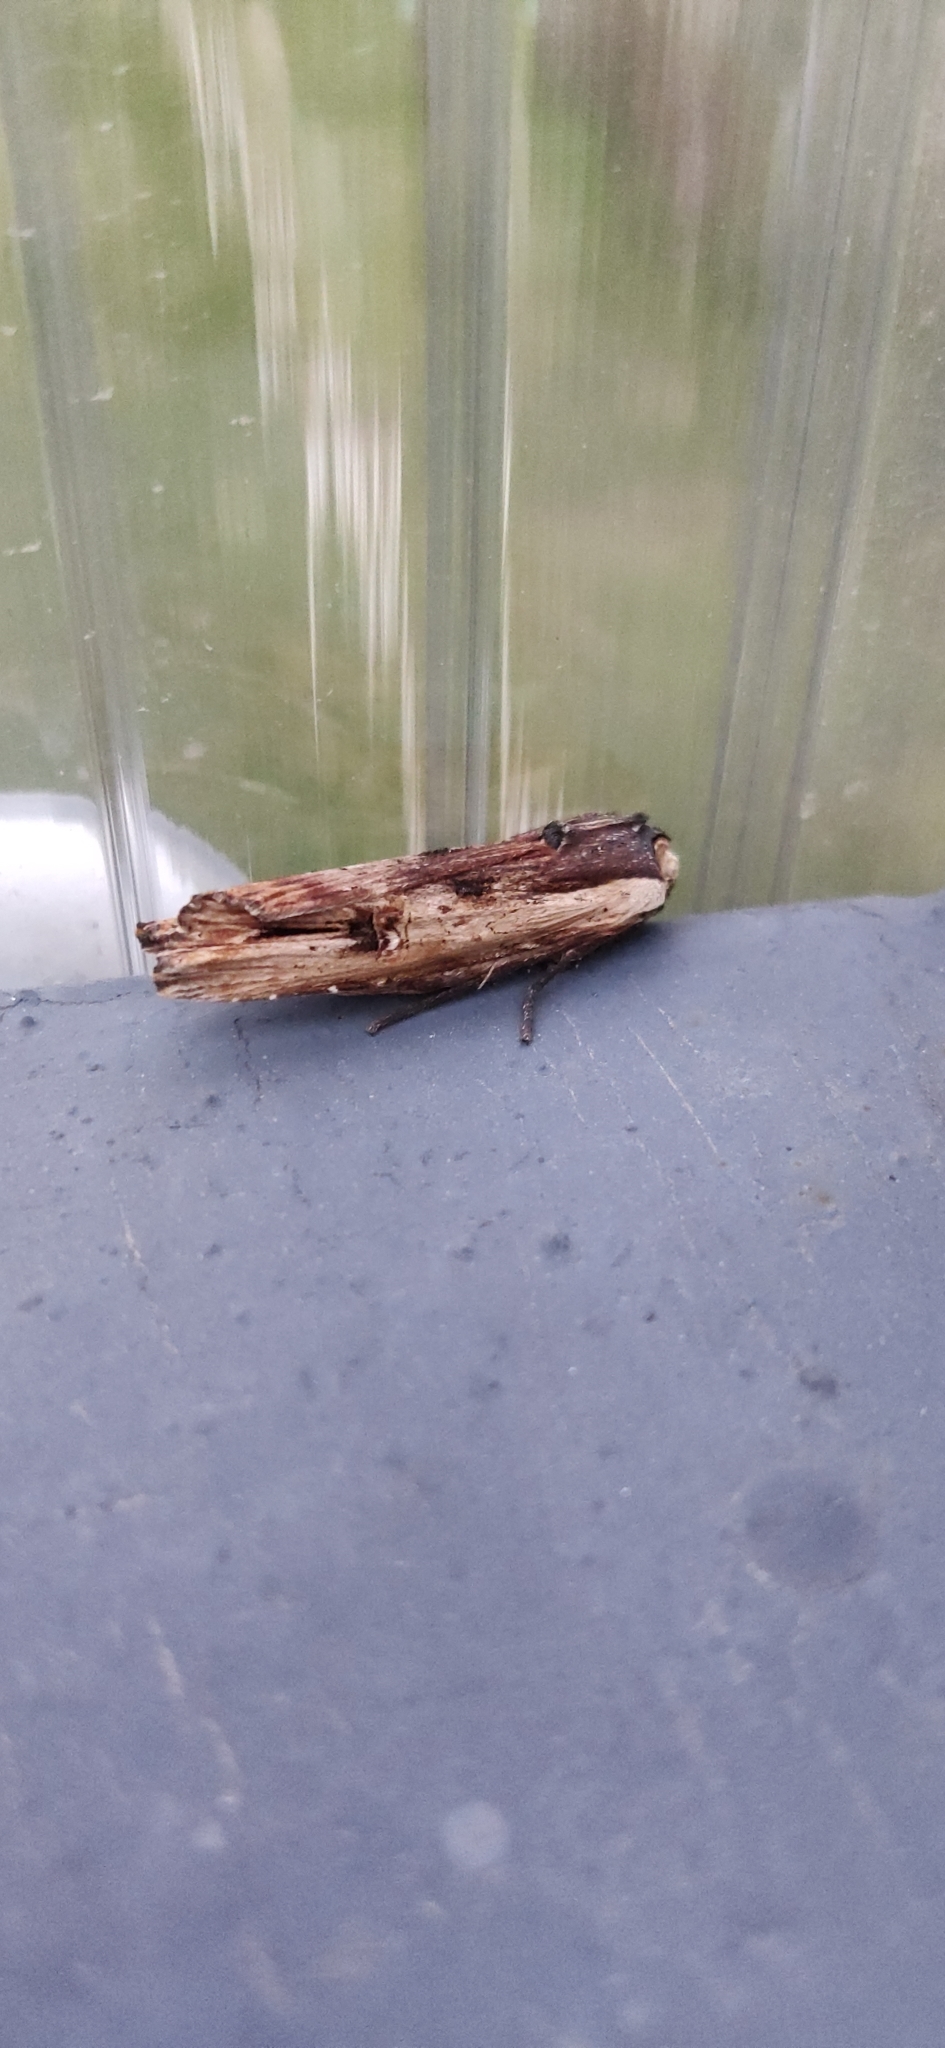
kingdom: Animalia
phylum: Arthropoda
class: Insecta
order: Lepidoptera
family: Noctuidae
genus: Xylena
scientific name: Xylena vetusta
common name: Red sword-grass
